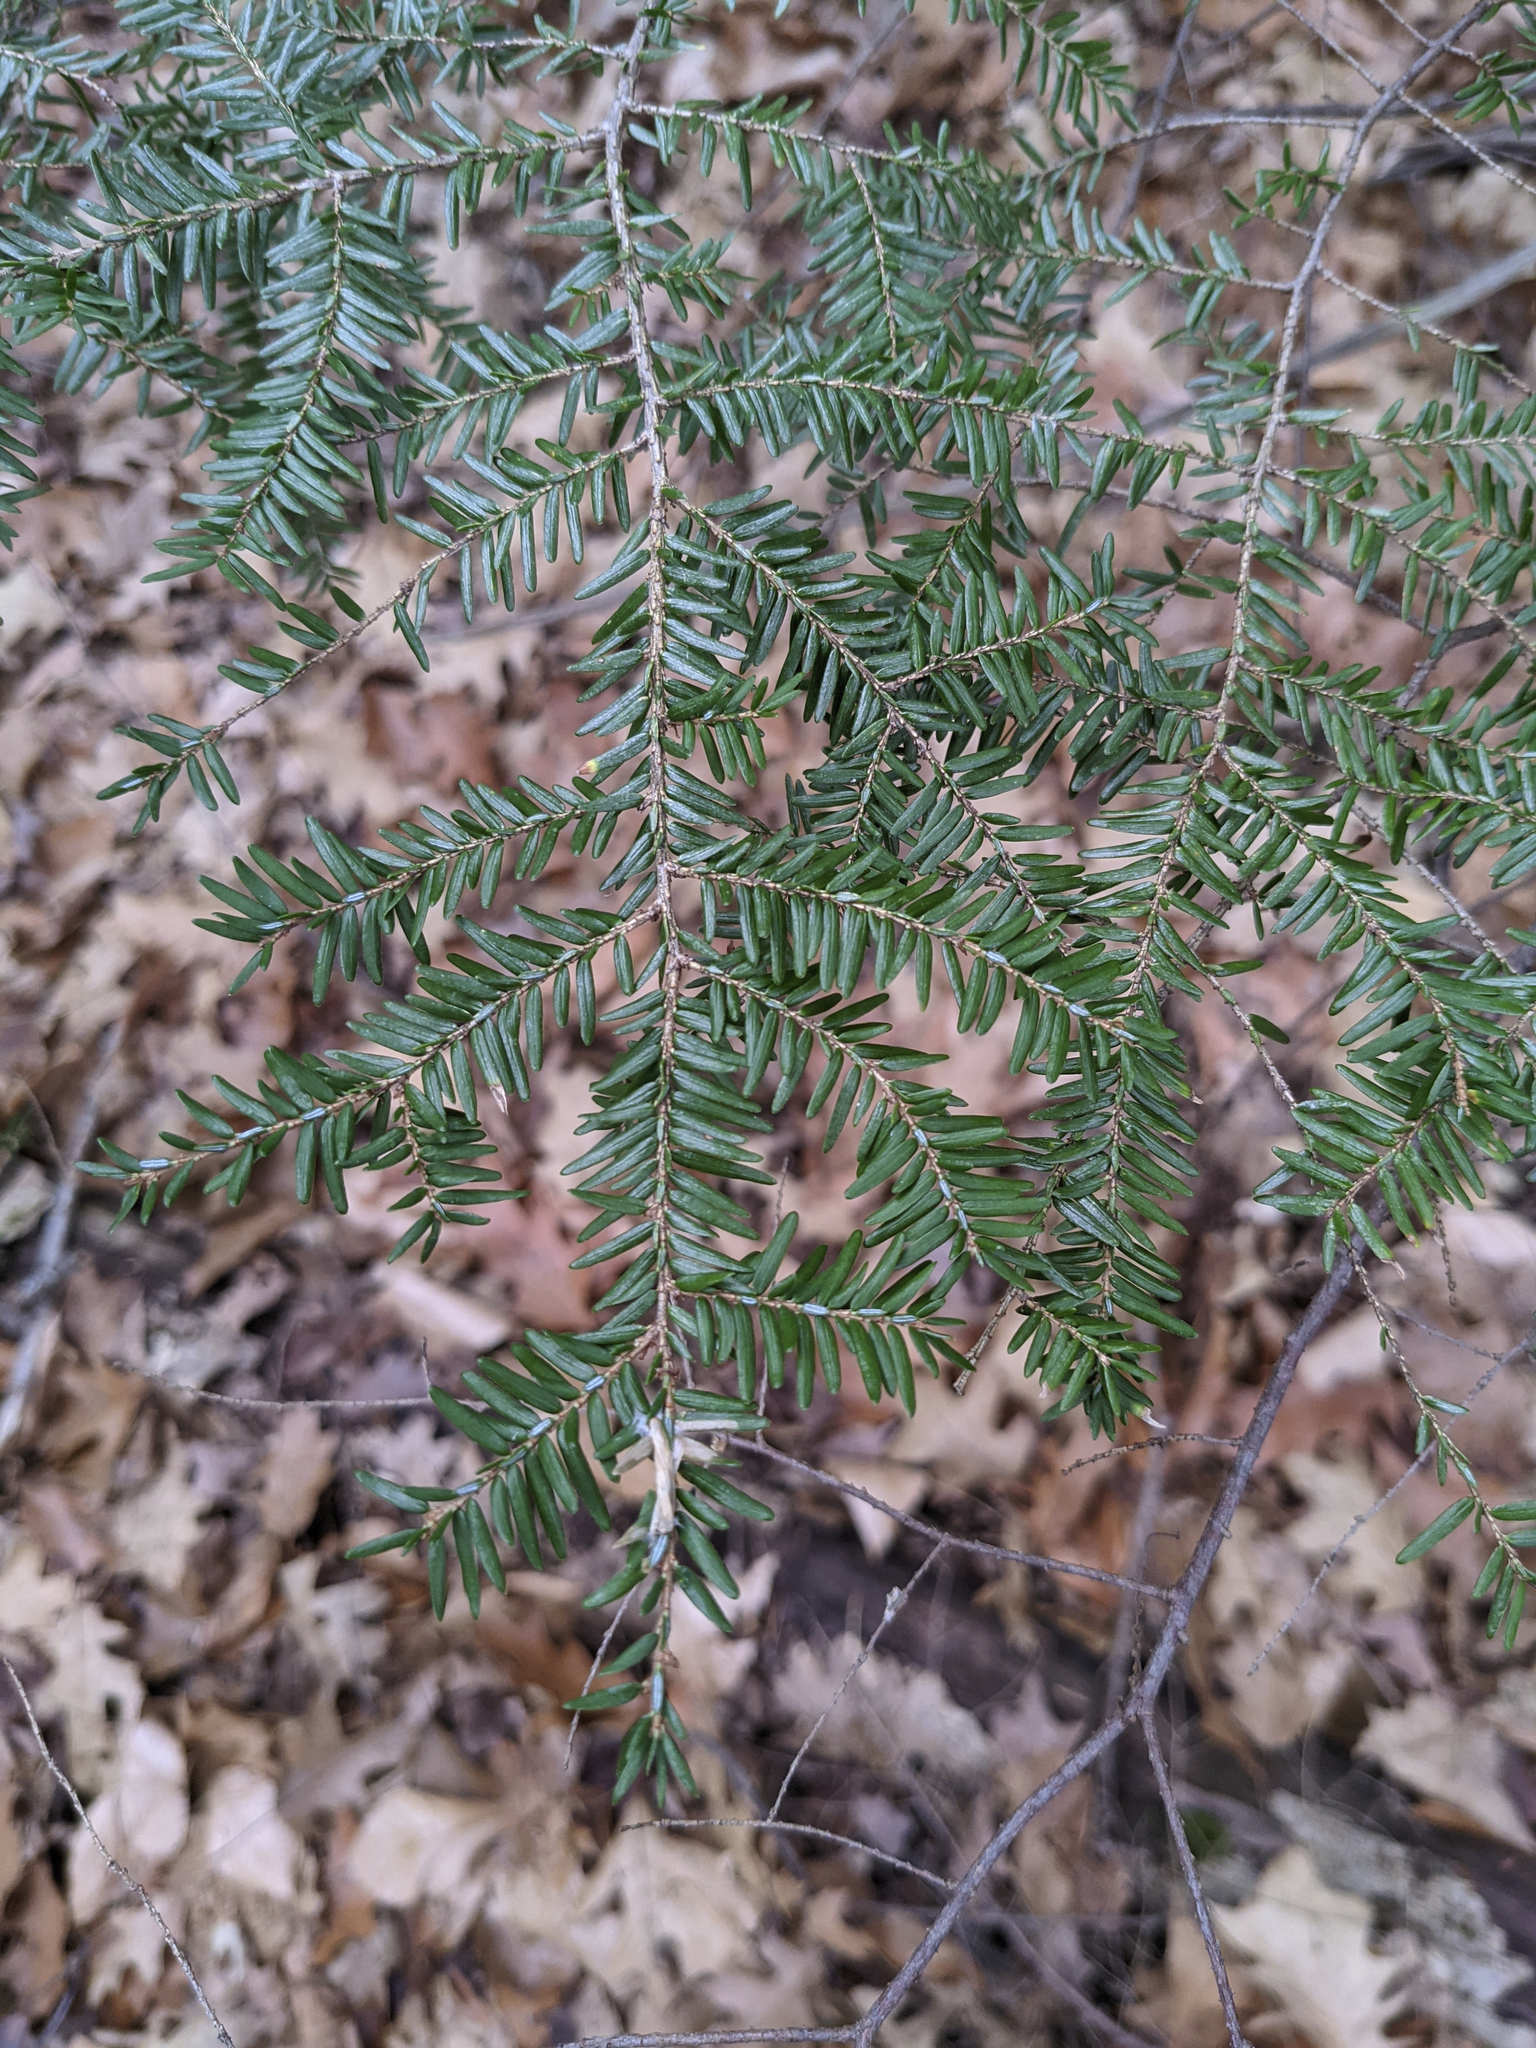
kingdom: Plantae
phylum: Tracheophyta
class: Pinopsida
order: Pinales
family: Pinaceae
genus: Tsuga
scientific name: Tsuga canadensis
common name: Eastern hemlock
